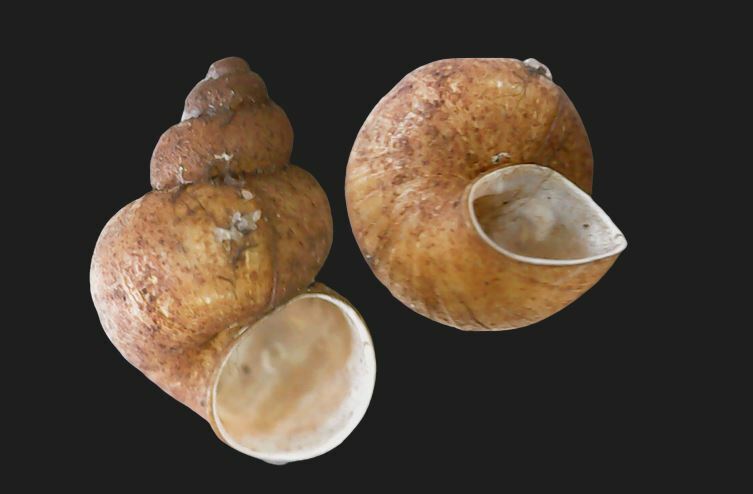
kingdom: Animalia
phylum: Mollusca
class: Gastropoda
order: Littorinimorpha
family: Bithyniidae
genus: Bithynia
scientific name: Bithynia leachii
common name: Leach's bithynia
